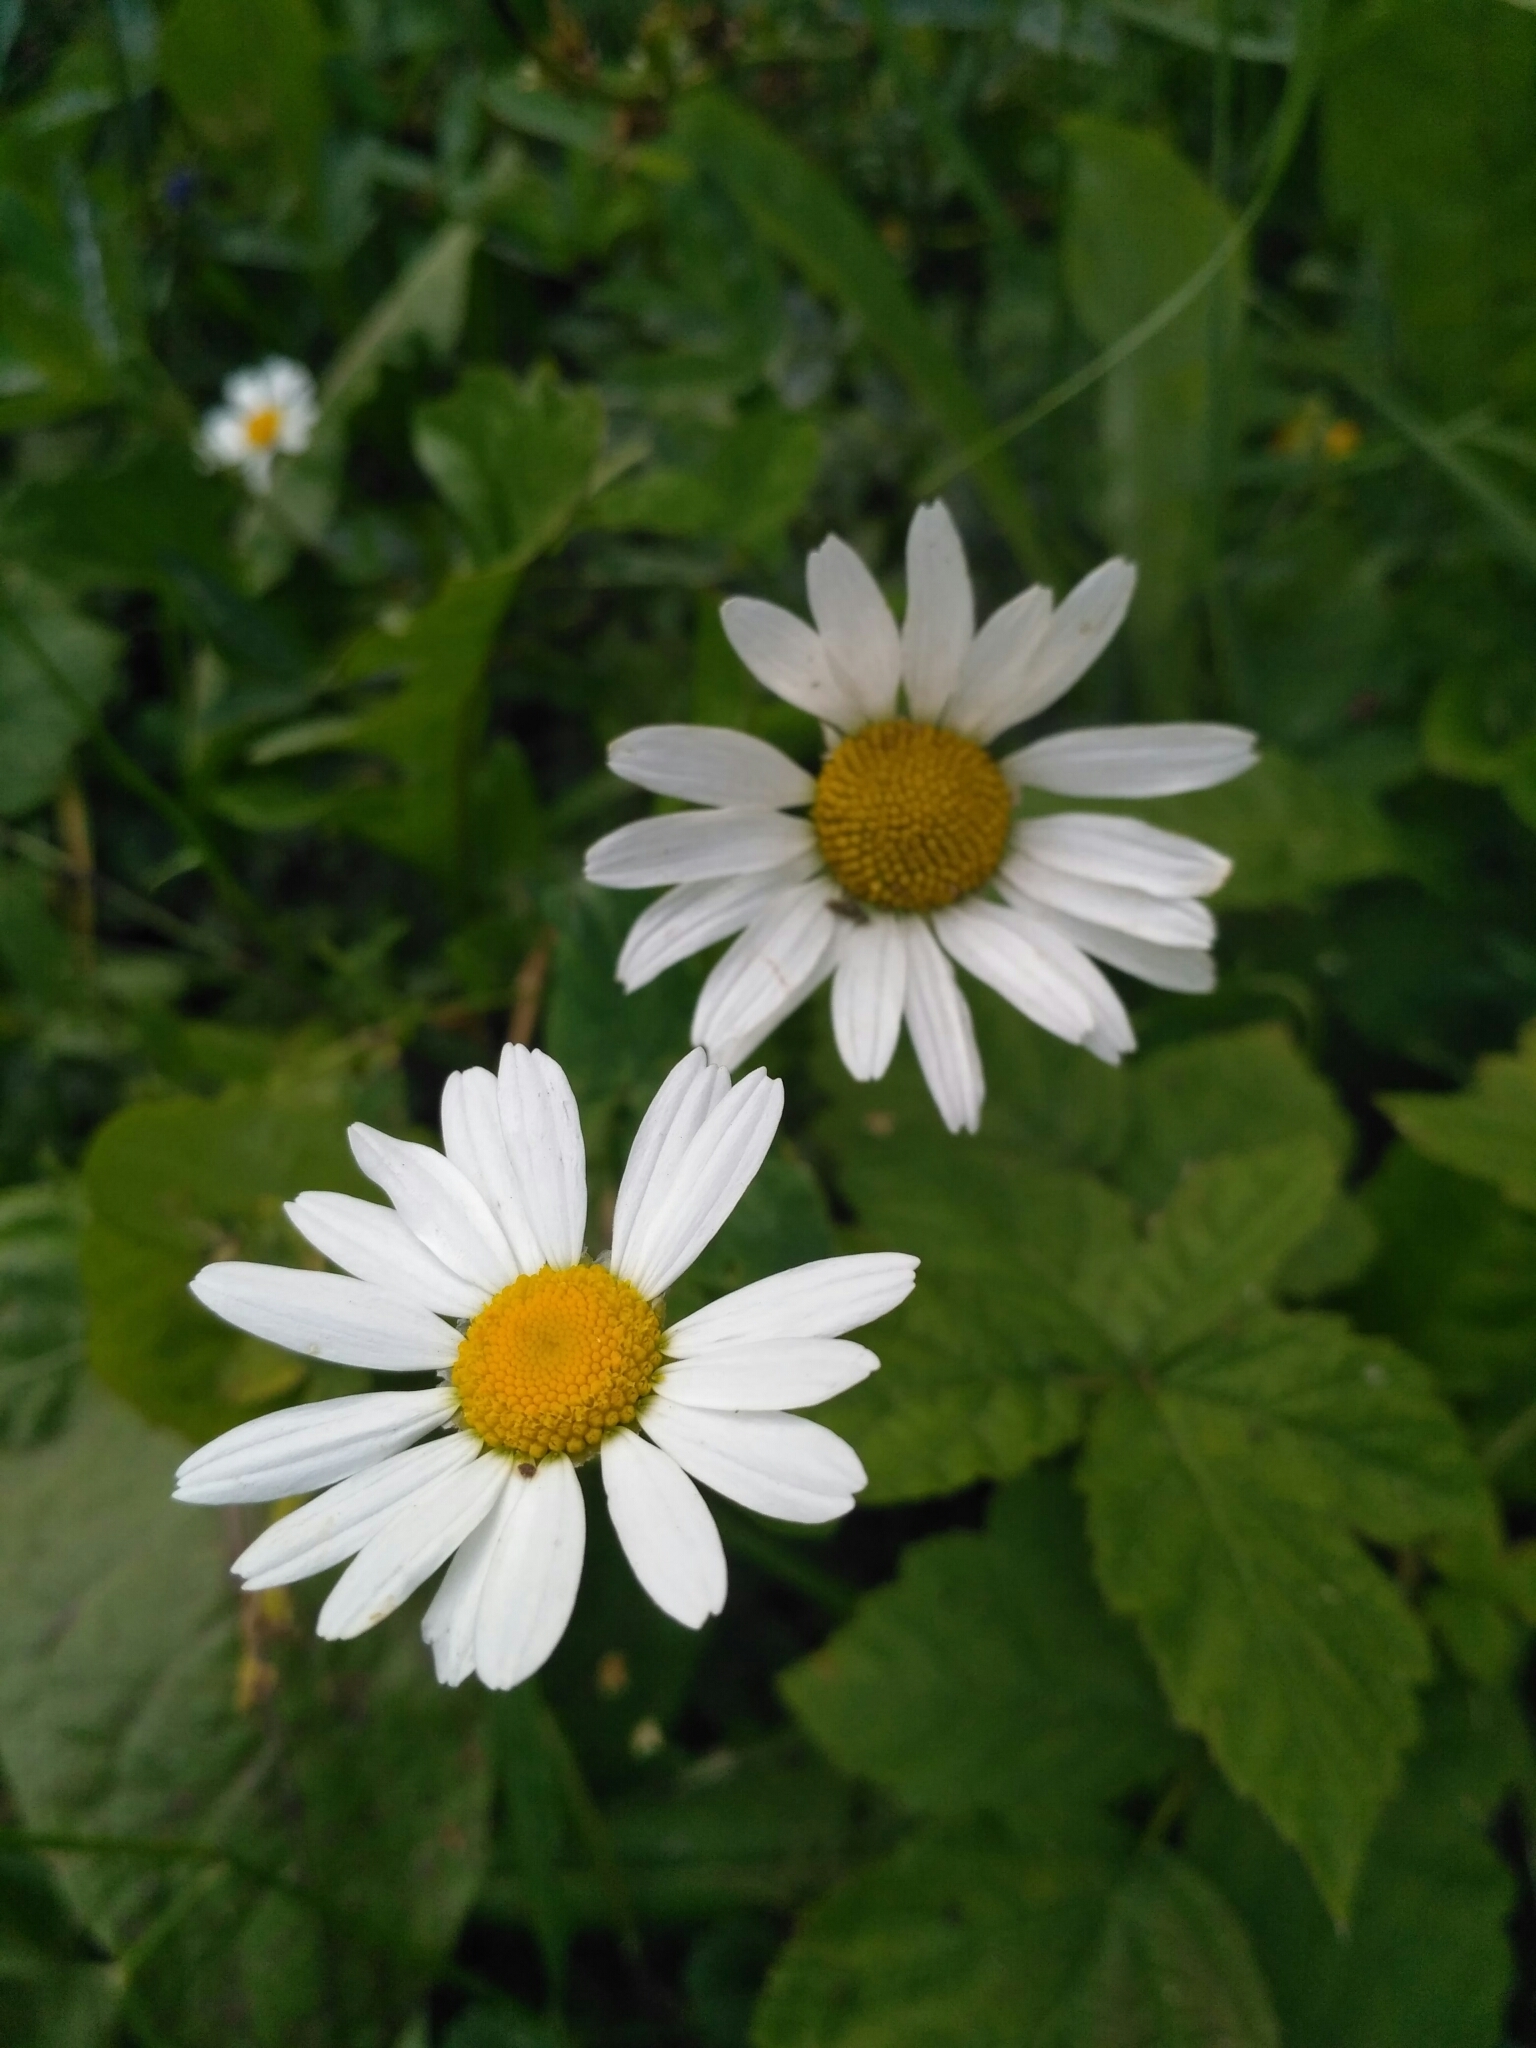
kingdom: Plantae
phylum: Tracheophyta
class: Magnoliopsida
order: Asterales
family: Asteraceae
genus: Leucanthemum
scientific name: Leucanthemum vulgare
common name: Oxeye daisy
